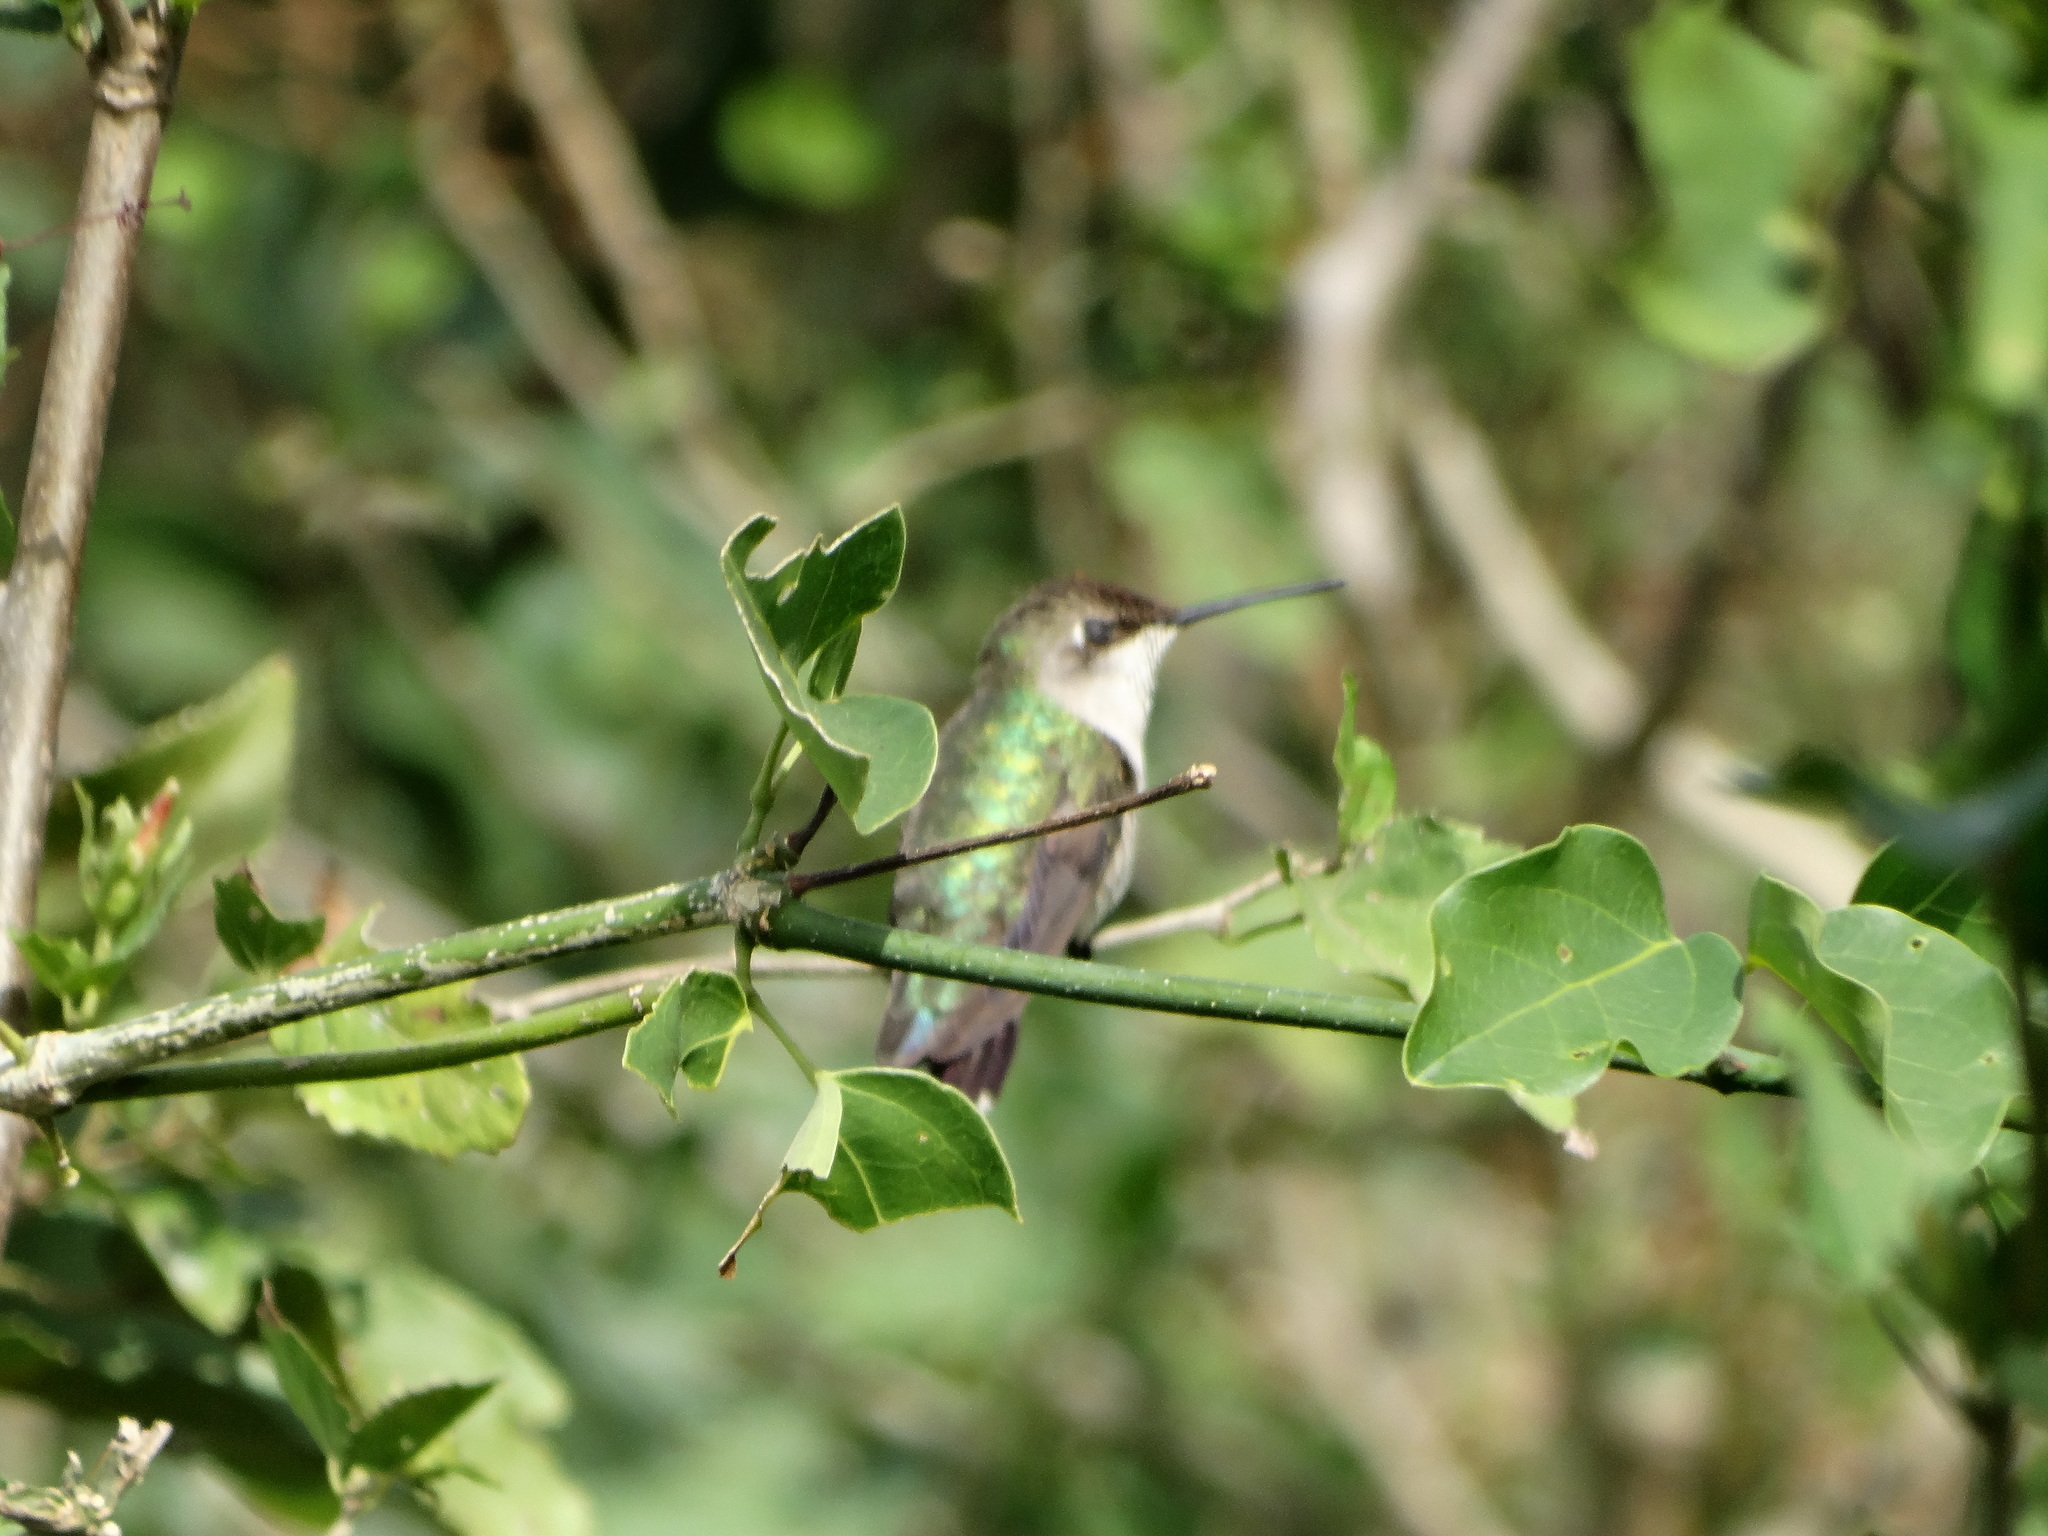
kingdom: Animalia
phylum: Chordata
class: Aves
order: Apodiformes
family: Trochilidae
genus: Archilochus
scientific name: Archilochus colubris
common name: Ruby-throated hummingbird
